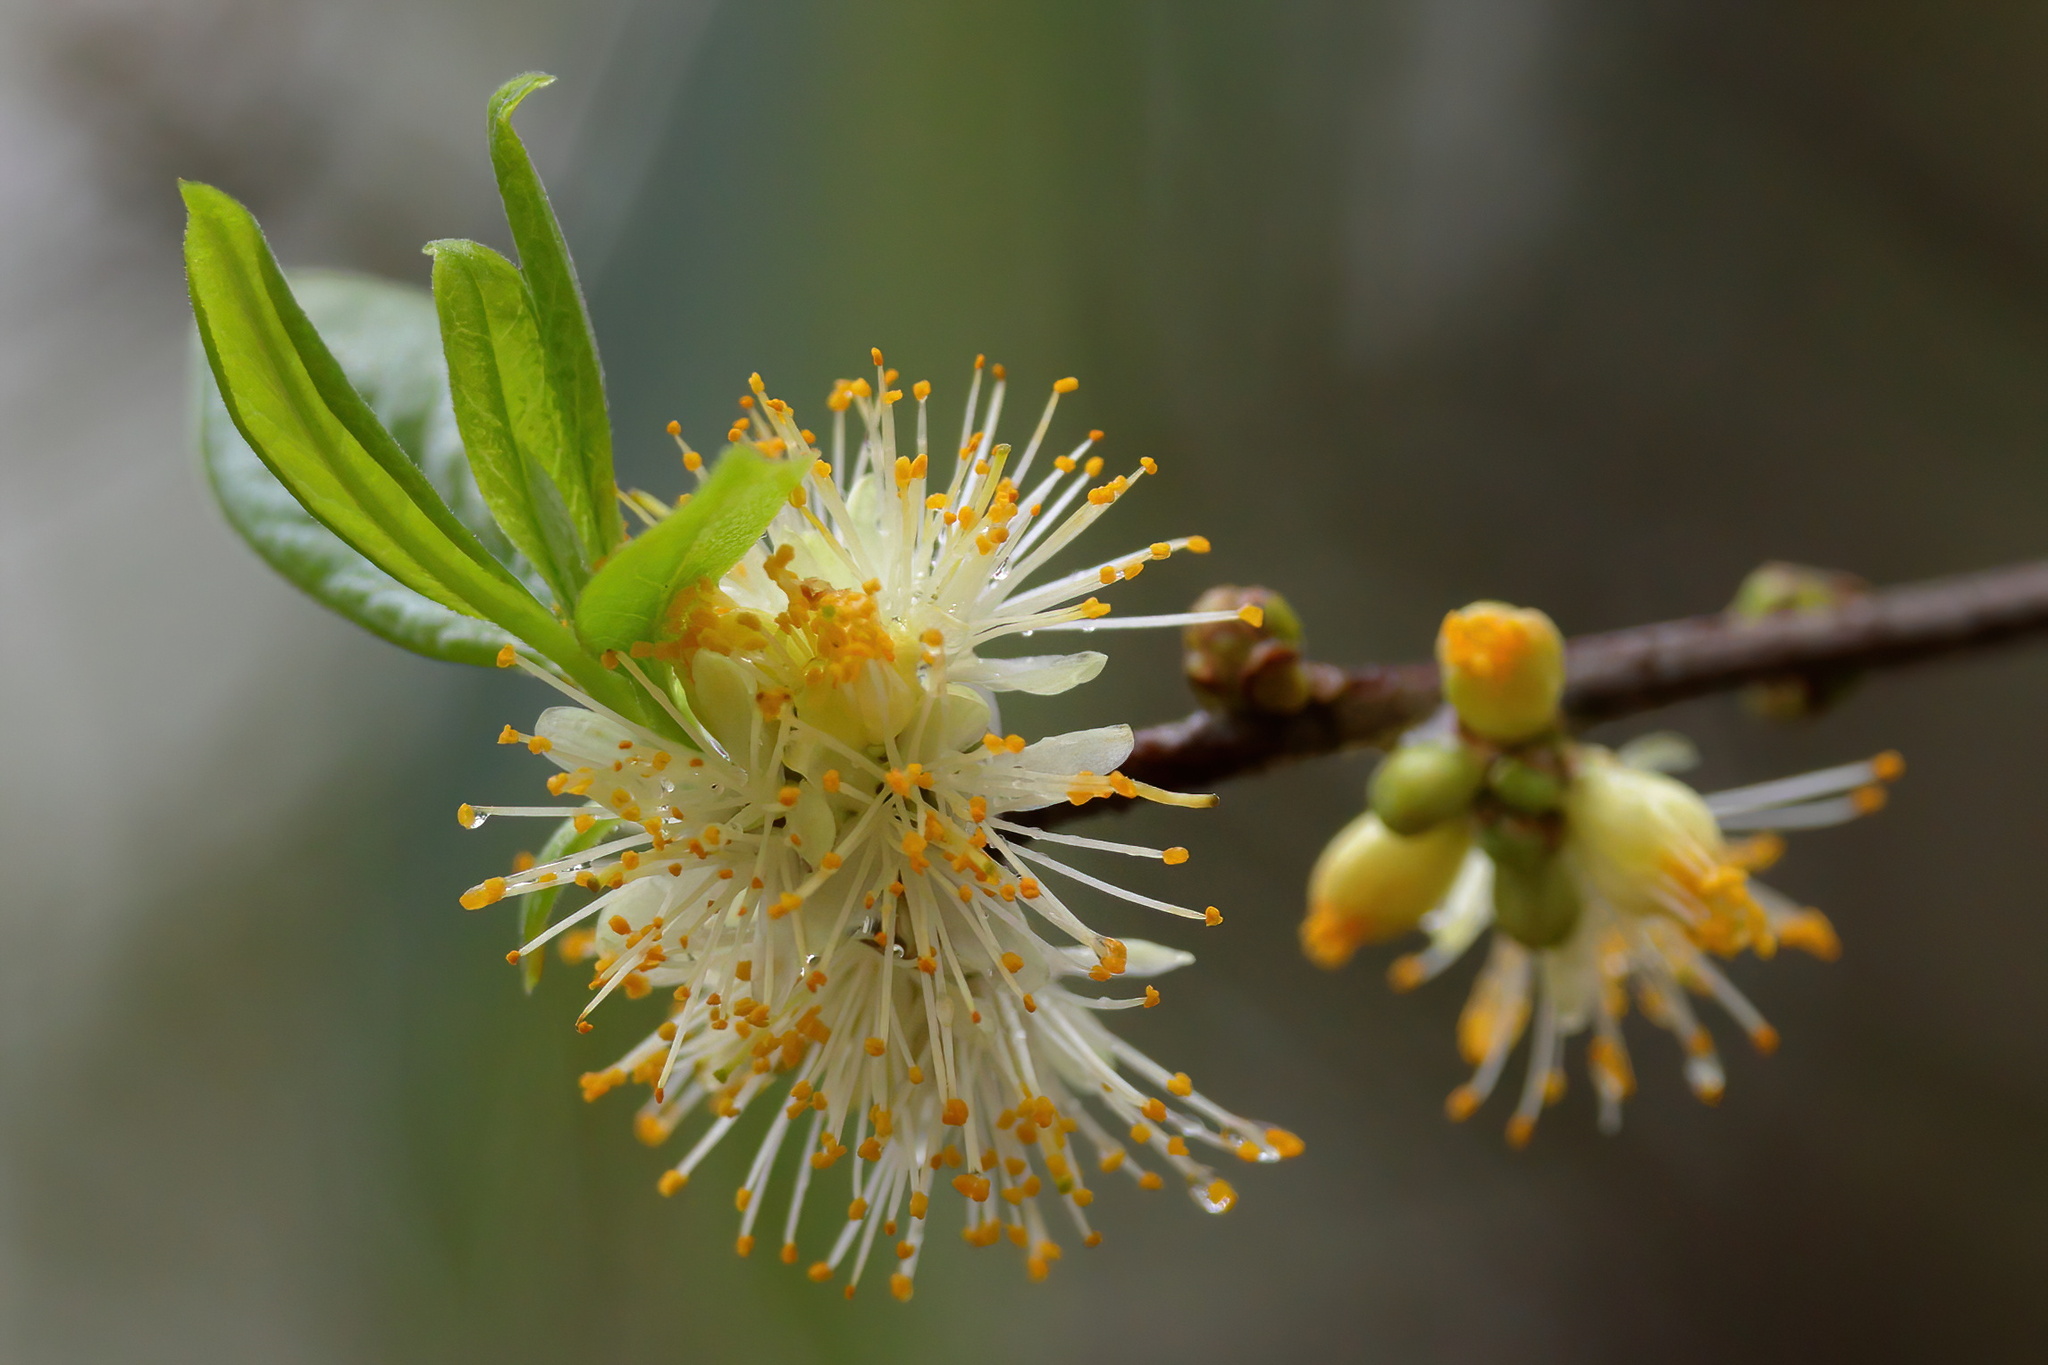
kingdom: Plantae
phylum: Tracheophyta
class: Magnoliopsida
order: Ericales
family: Symplocaceae
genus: Symplocos
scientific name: Symplocos tinctoria
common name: Horse-sugar
